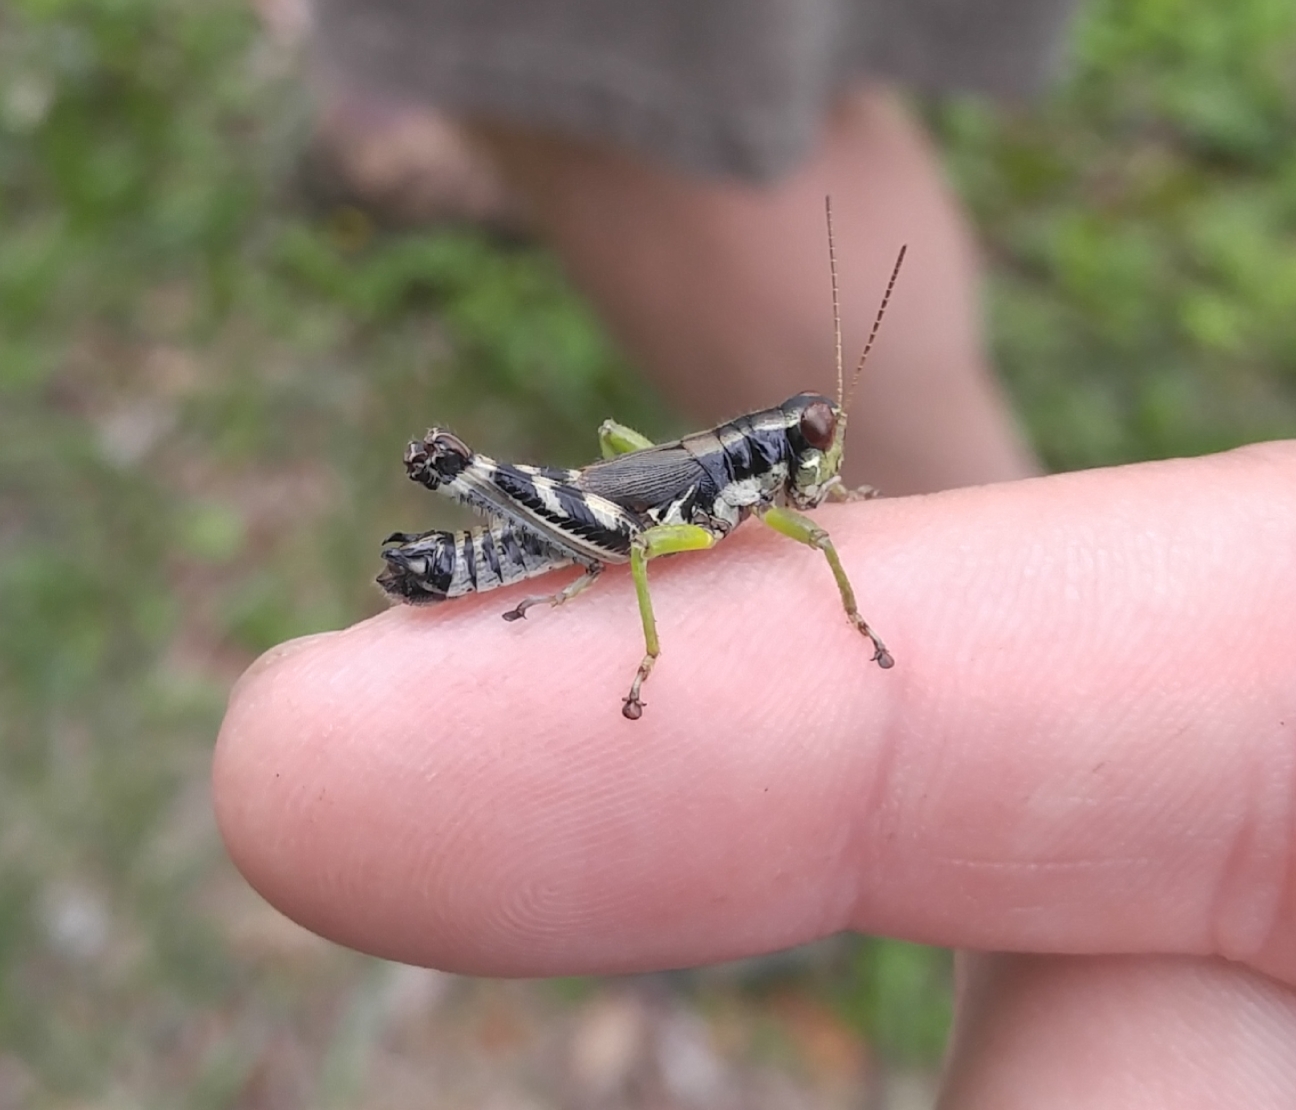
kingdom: Animalia
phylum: Arthropoda
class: Insecta
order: Orthoptera
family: Acrididae
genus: Melanoplus
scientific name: Melanoplus viridipes
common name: Green-legged locust
